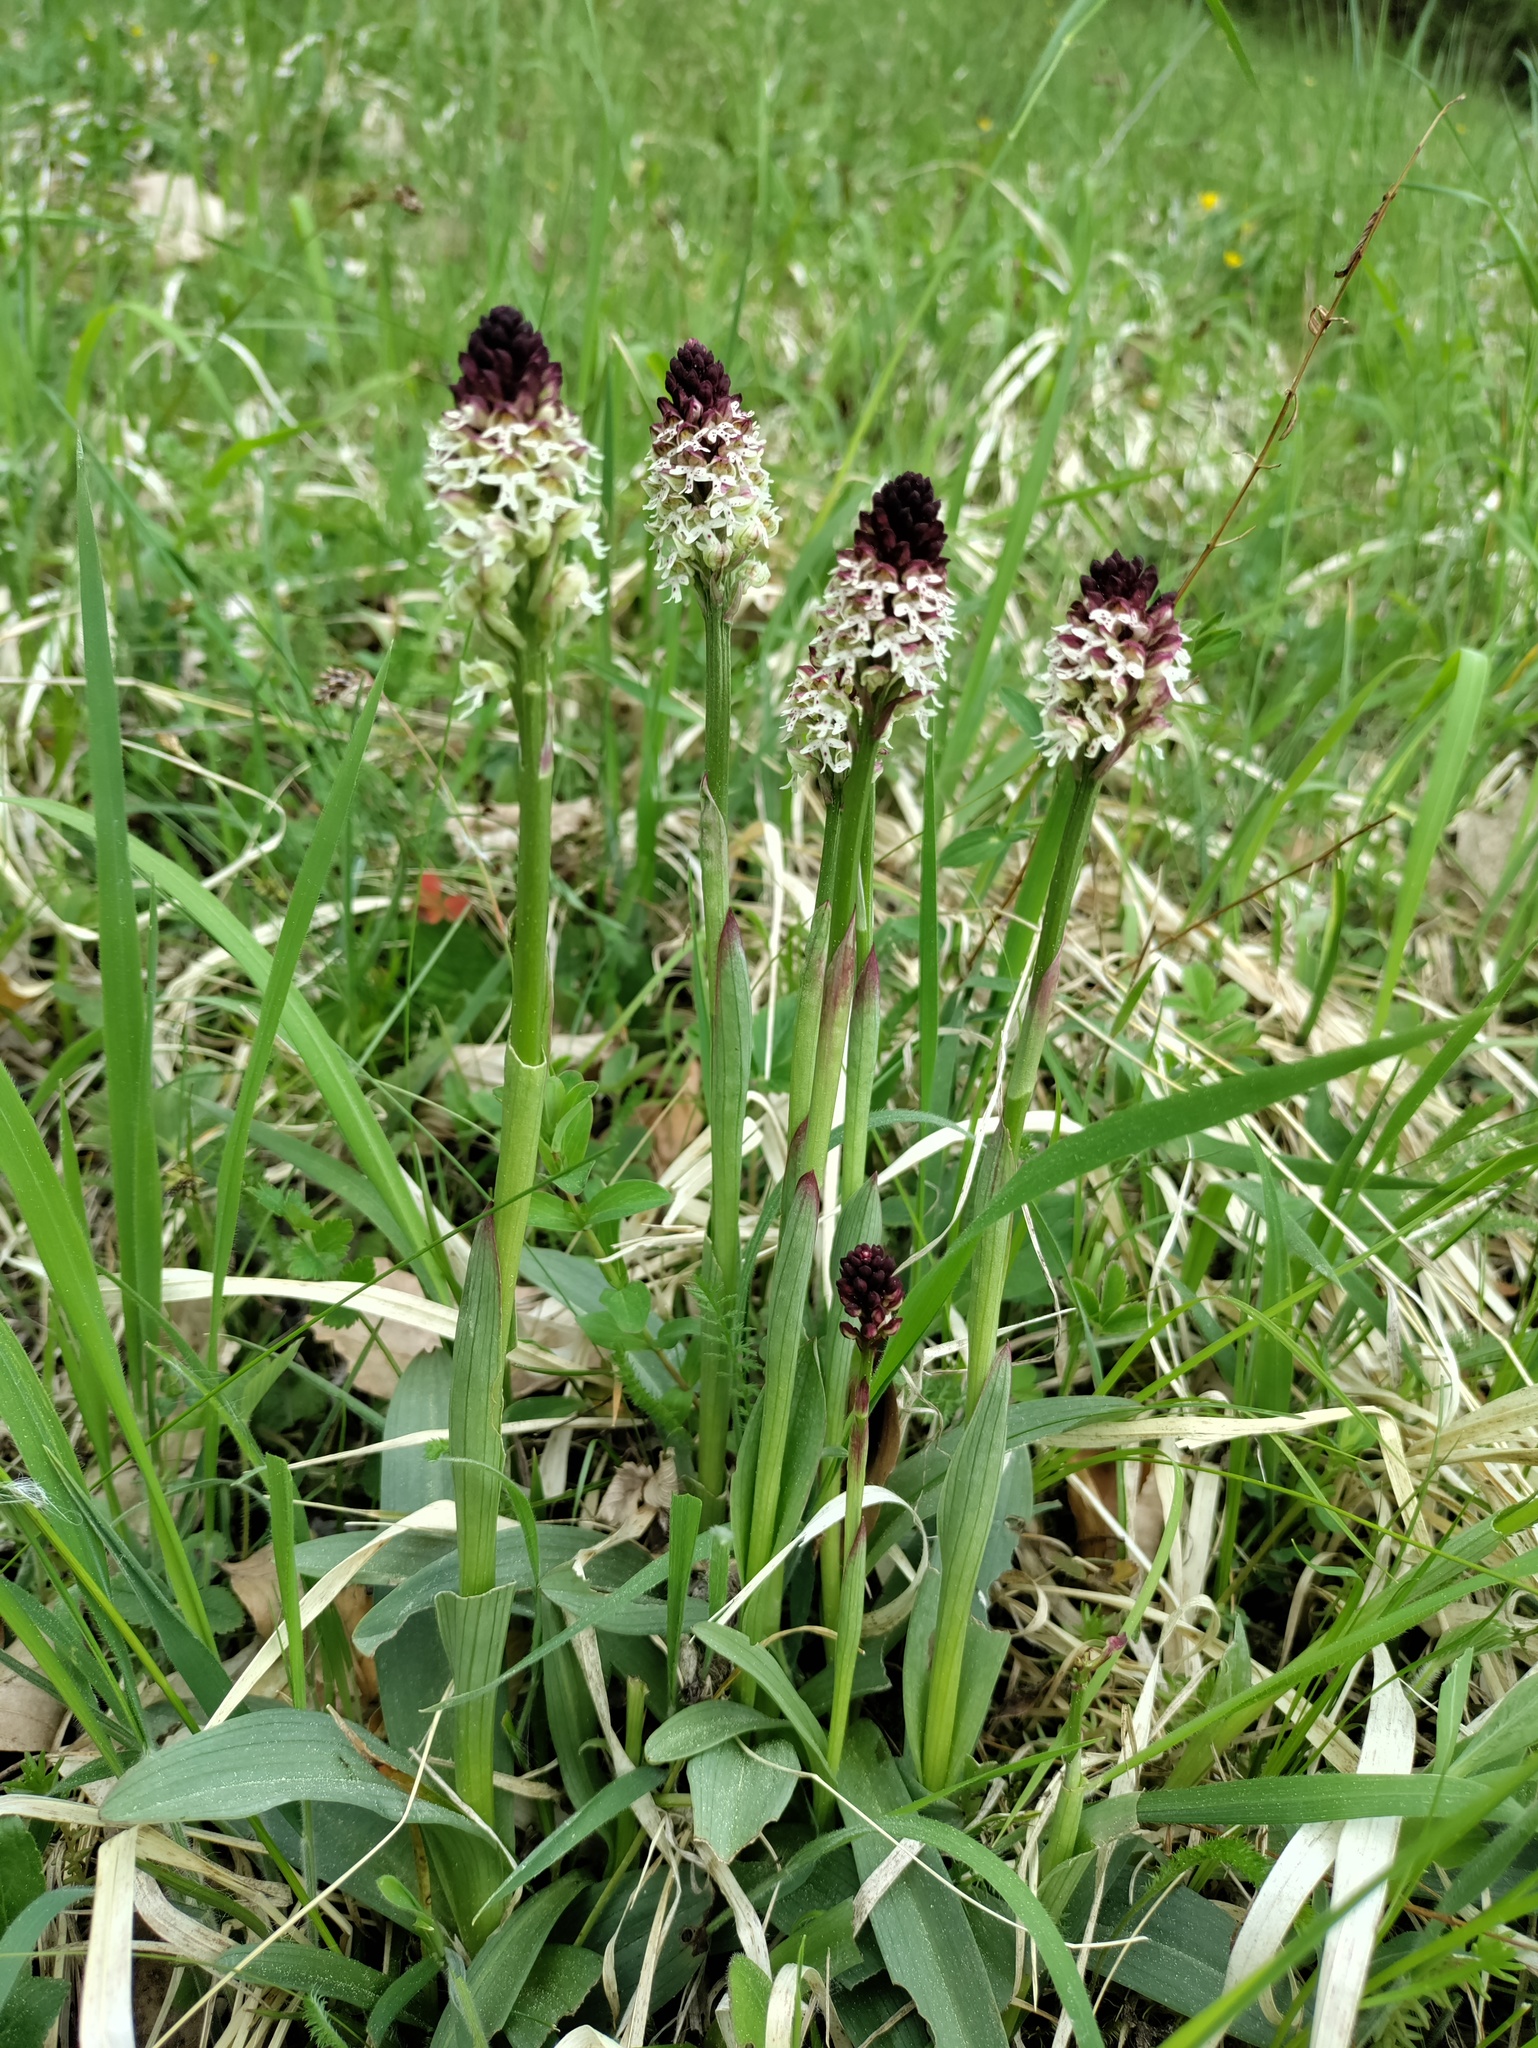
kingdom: Plantae
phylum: Tracheophyta
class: Liliopsida
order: Asparagales
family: Orchidaceae
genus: Neotinea
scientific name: Neotinea ustulata
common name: Burnt orchid
